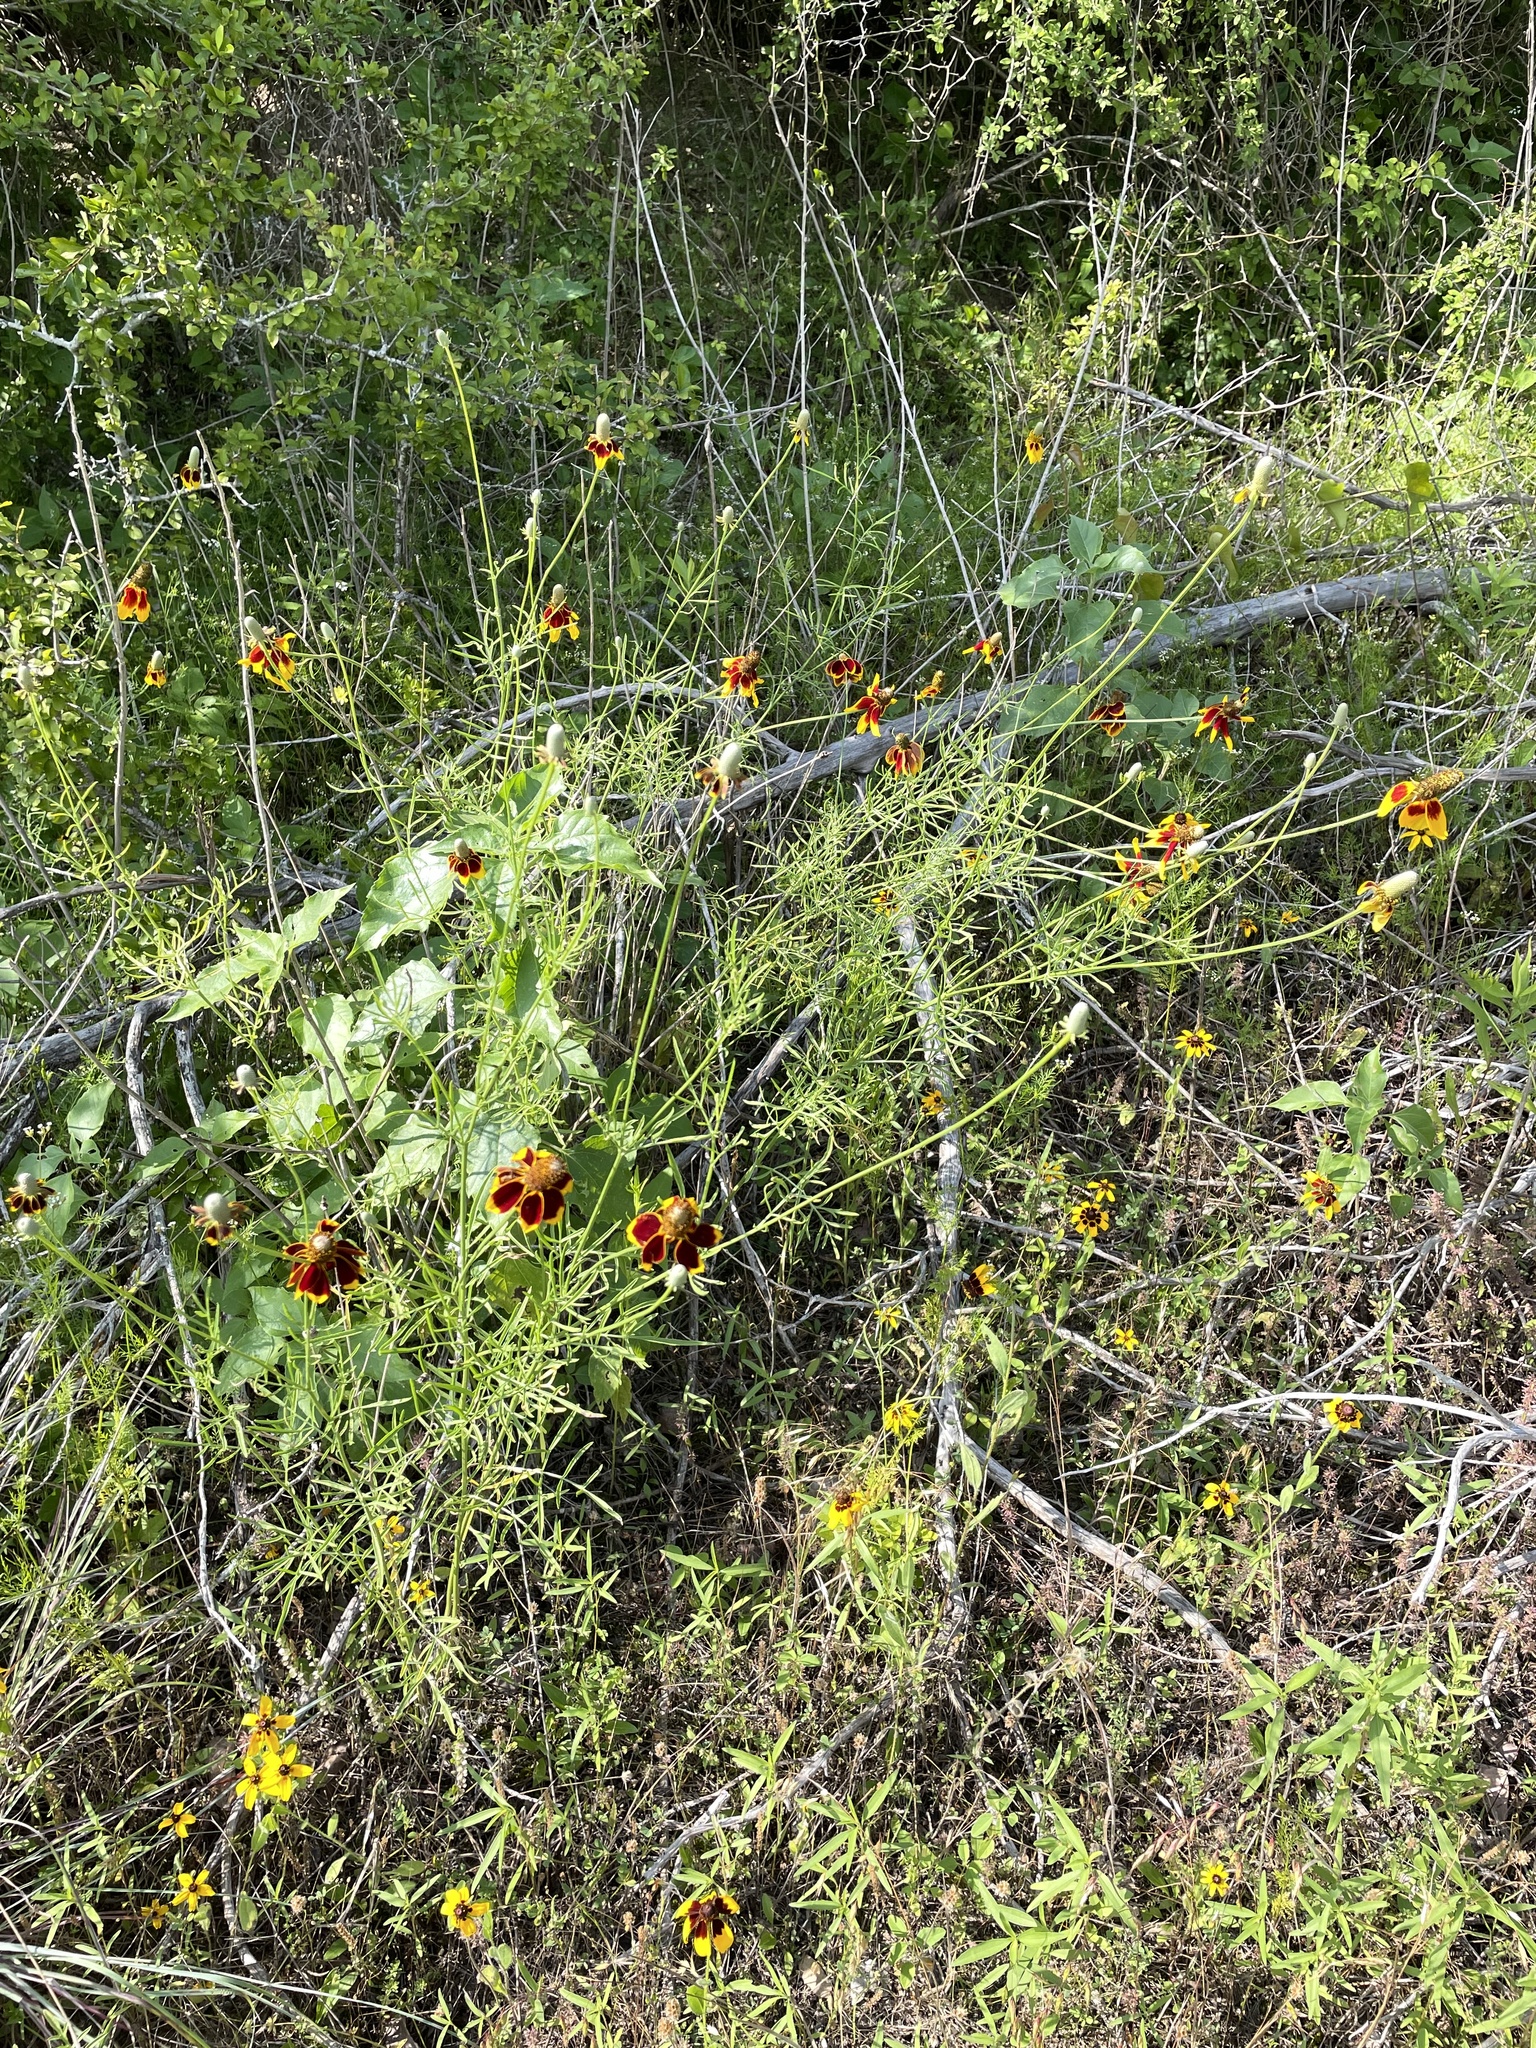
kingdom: Plantae
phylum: Tracheophyta
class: Magnoliopsida
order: Asterales
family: Asteraceae
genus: Ratibida
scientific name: Ratibida columnifera
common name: Prairie coneflower
